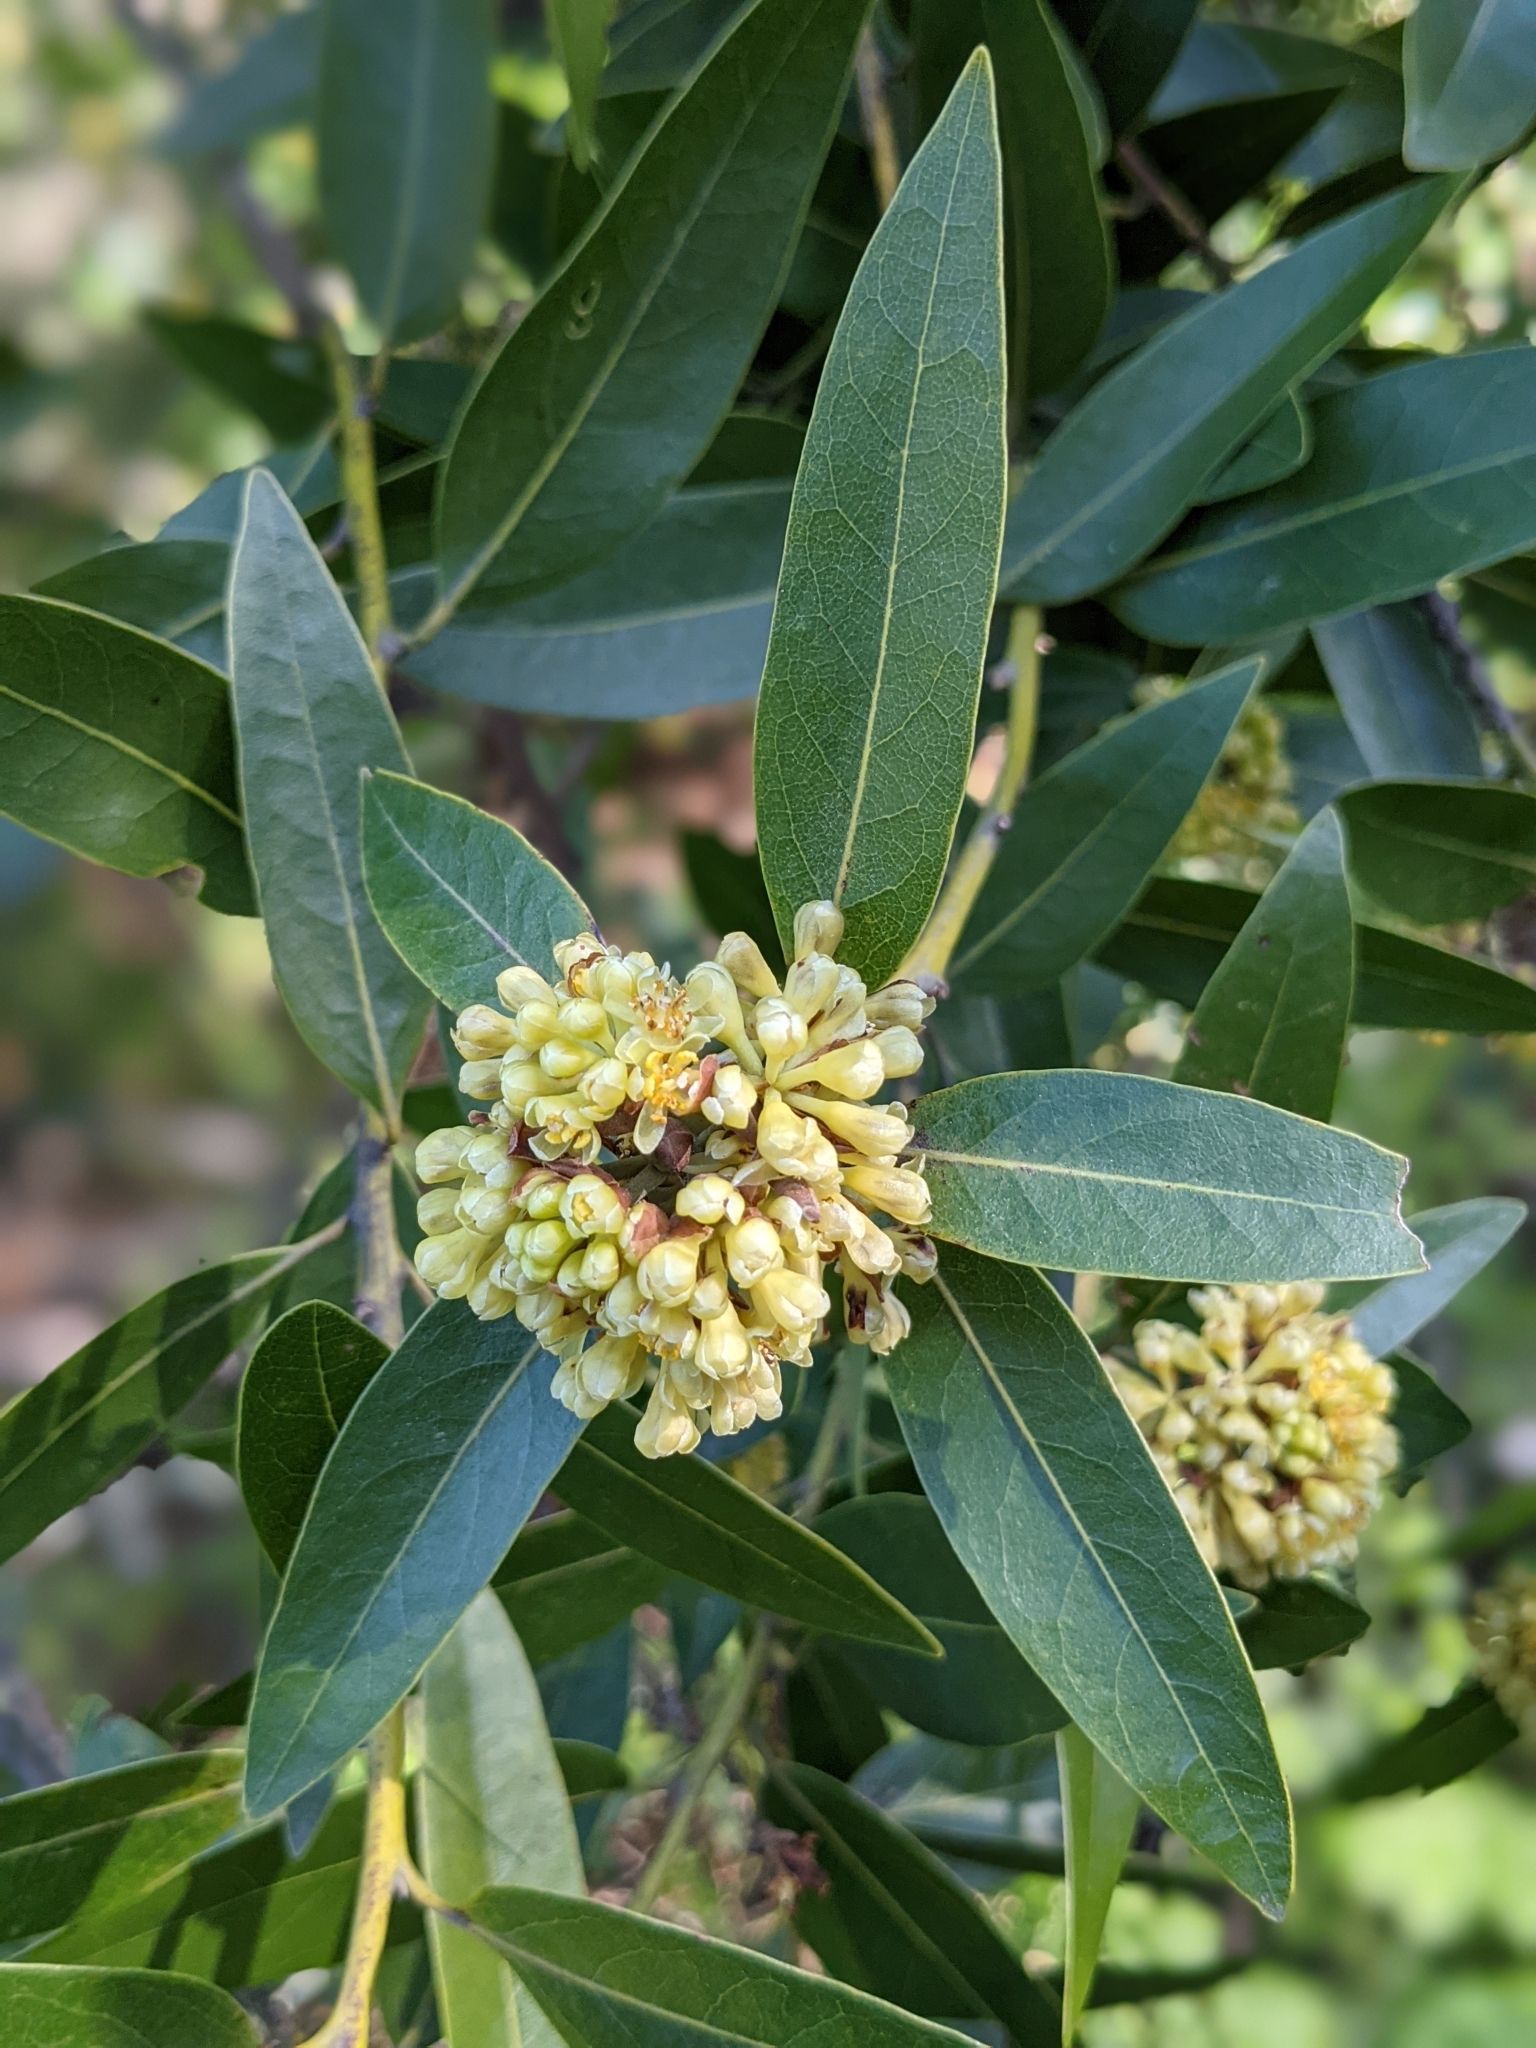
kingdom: Plantae
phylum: Tracheophyta
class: Magnoliopsida
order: Laurales
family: Lauraceae
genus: Umbellularia
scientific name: Umbellularia californica
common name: California bay
